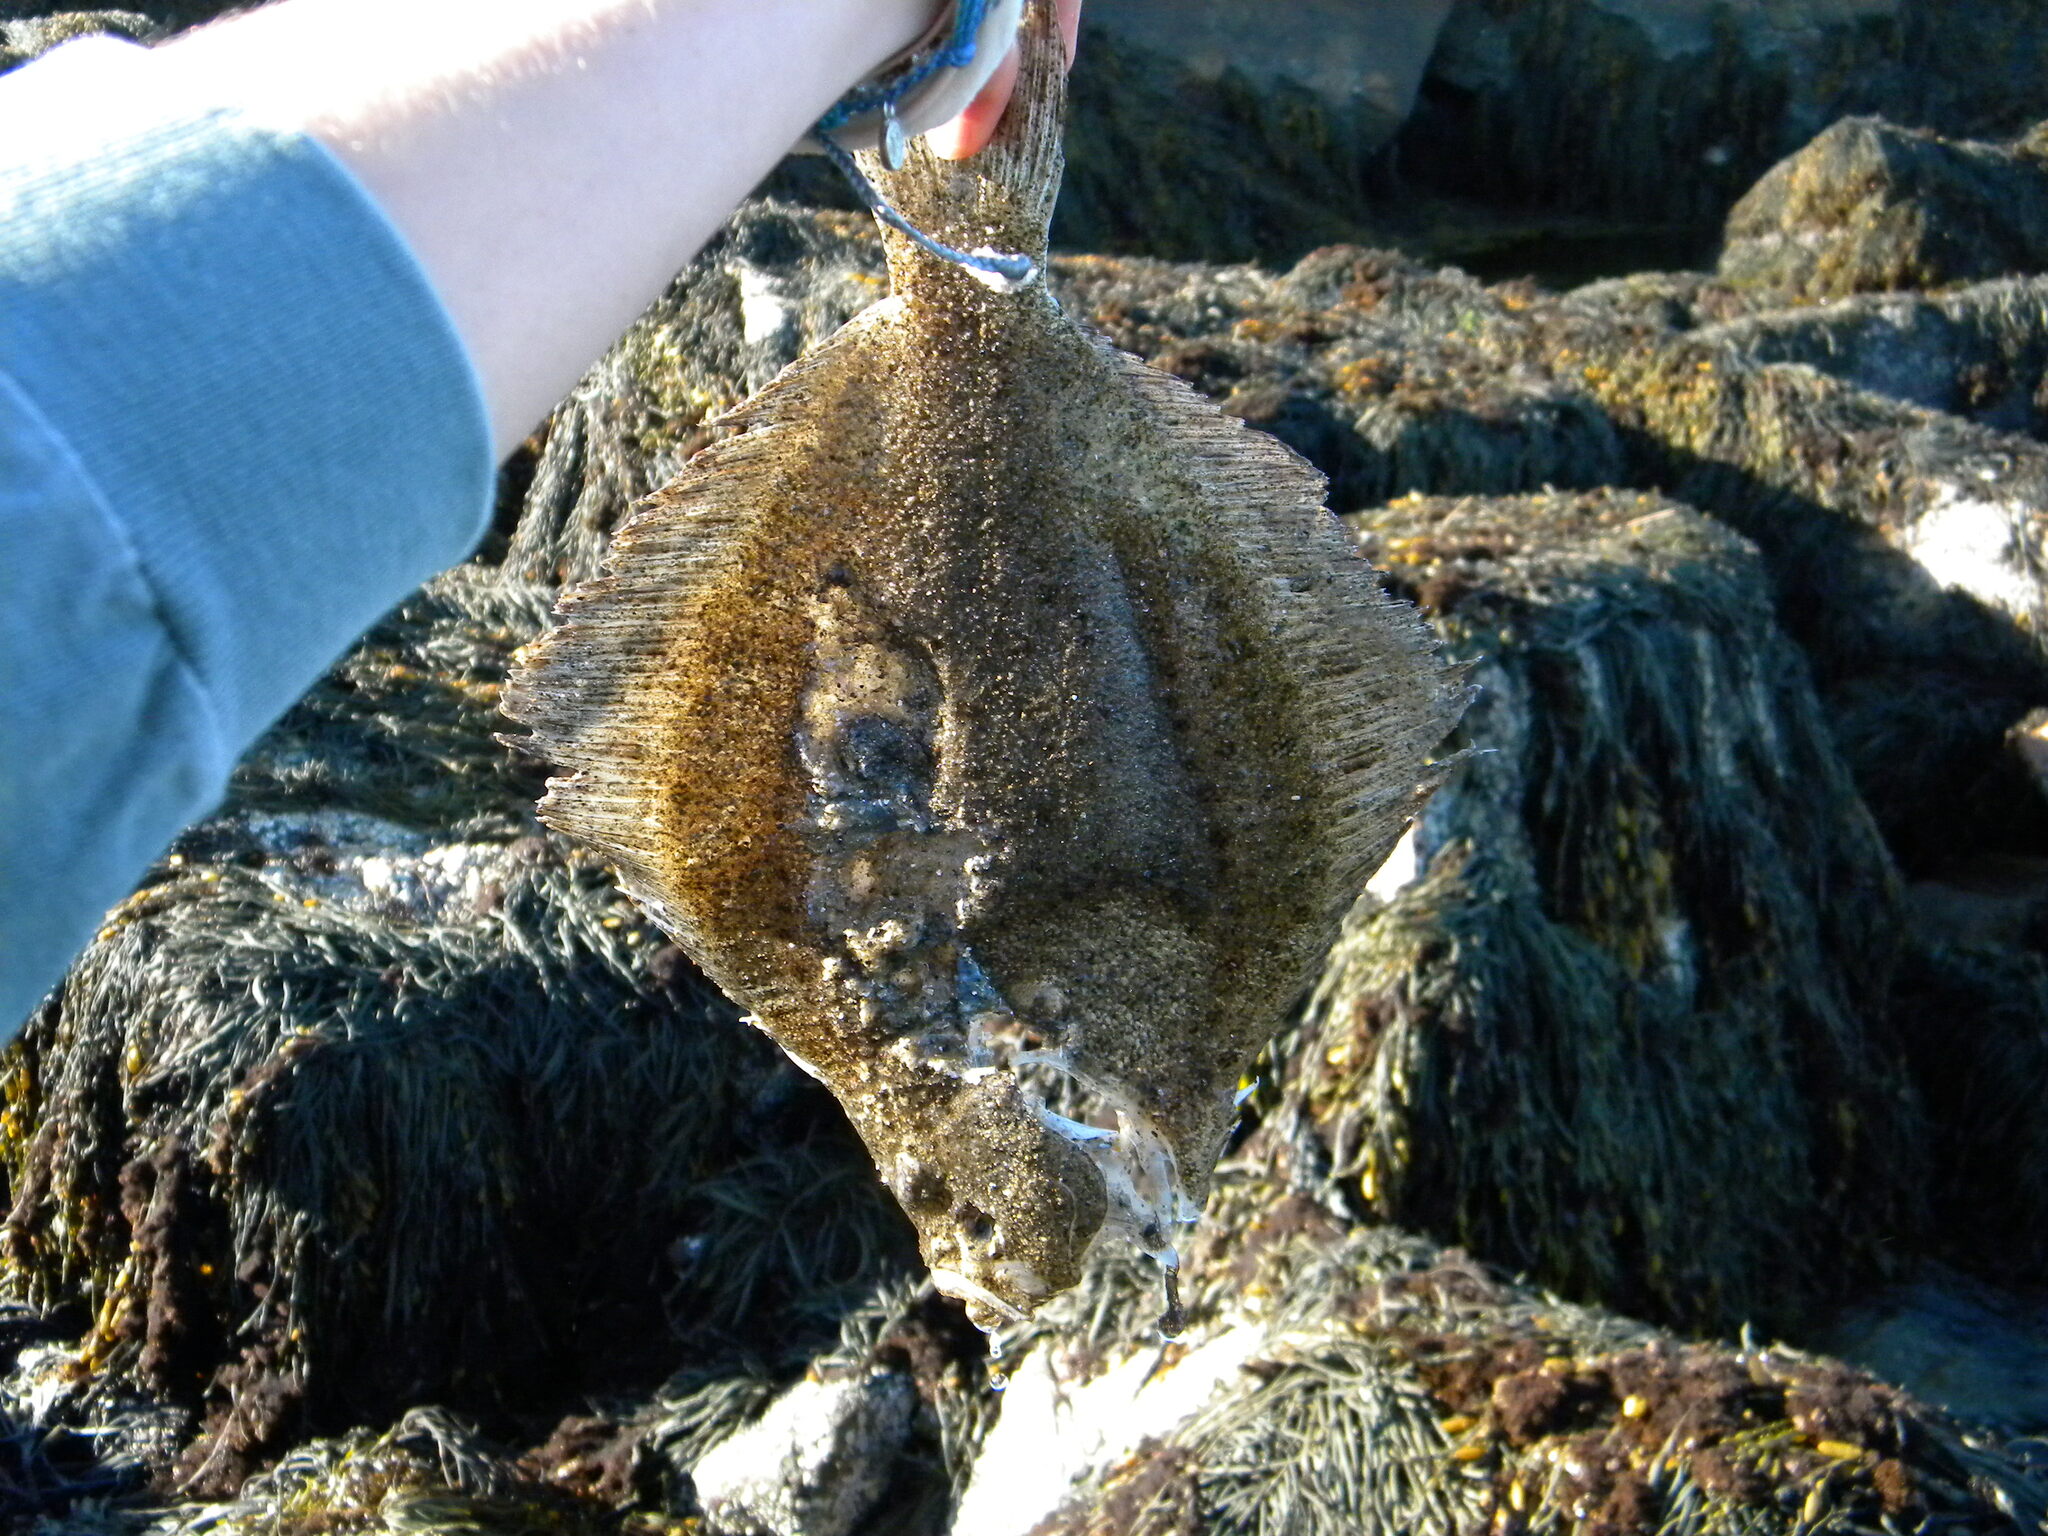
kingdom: Animalia
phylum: Chordata
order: Pleuronectiformes
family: Scophthalmidae
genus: Scophthalmus
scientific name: Scophthalmus aquosus
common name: Windowpane flounder
